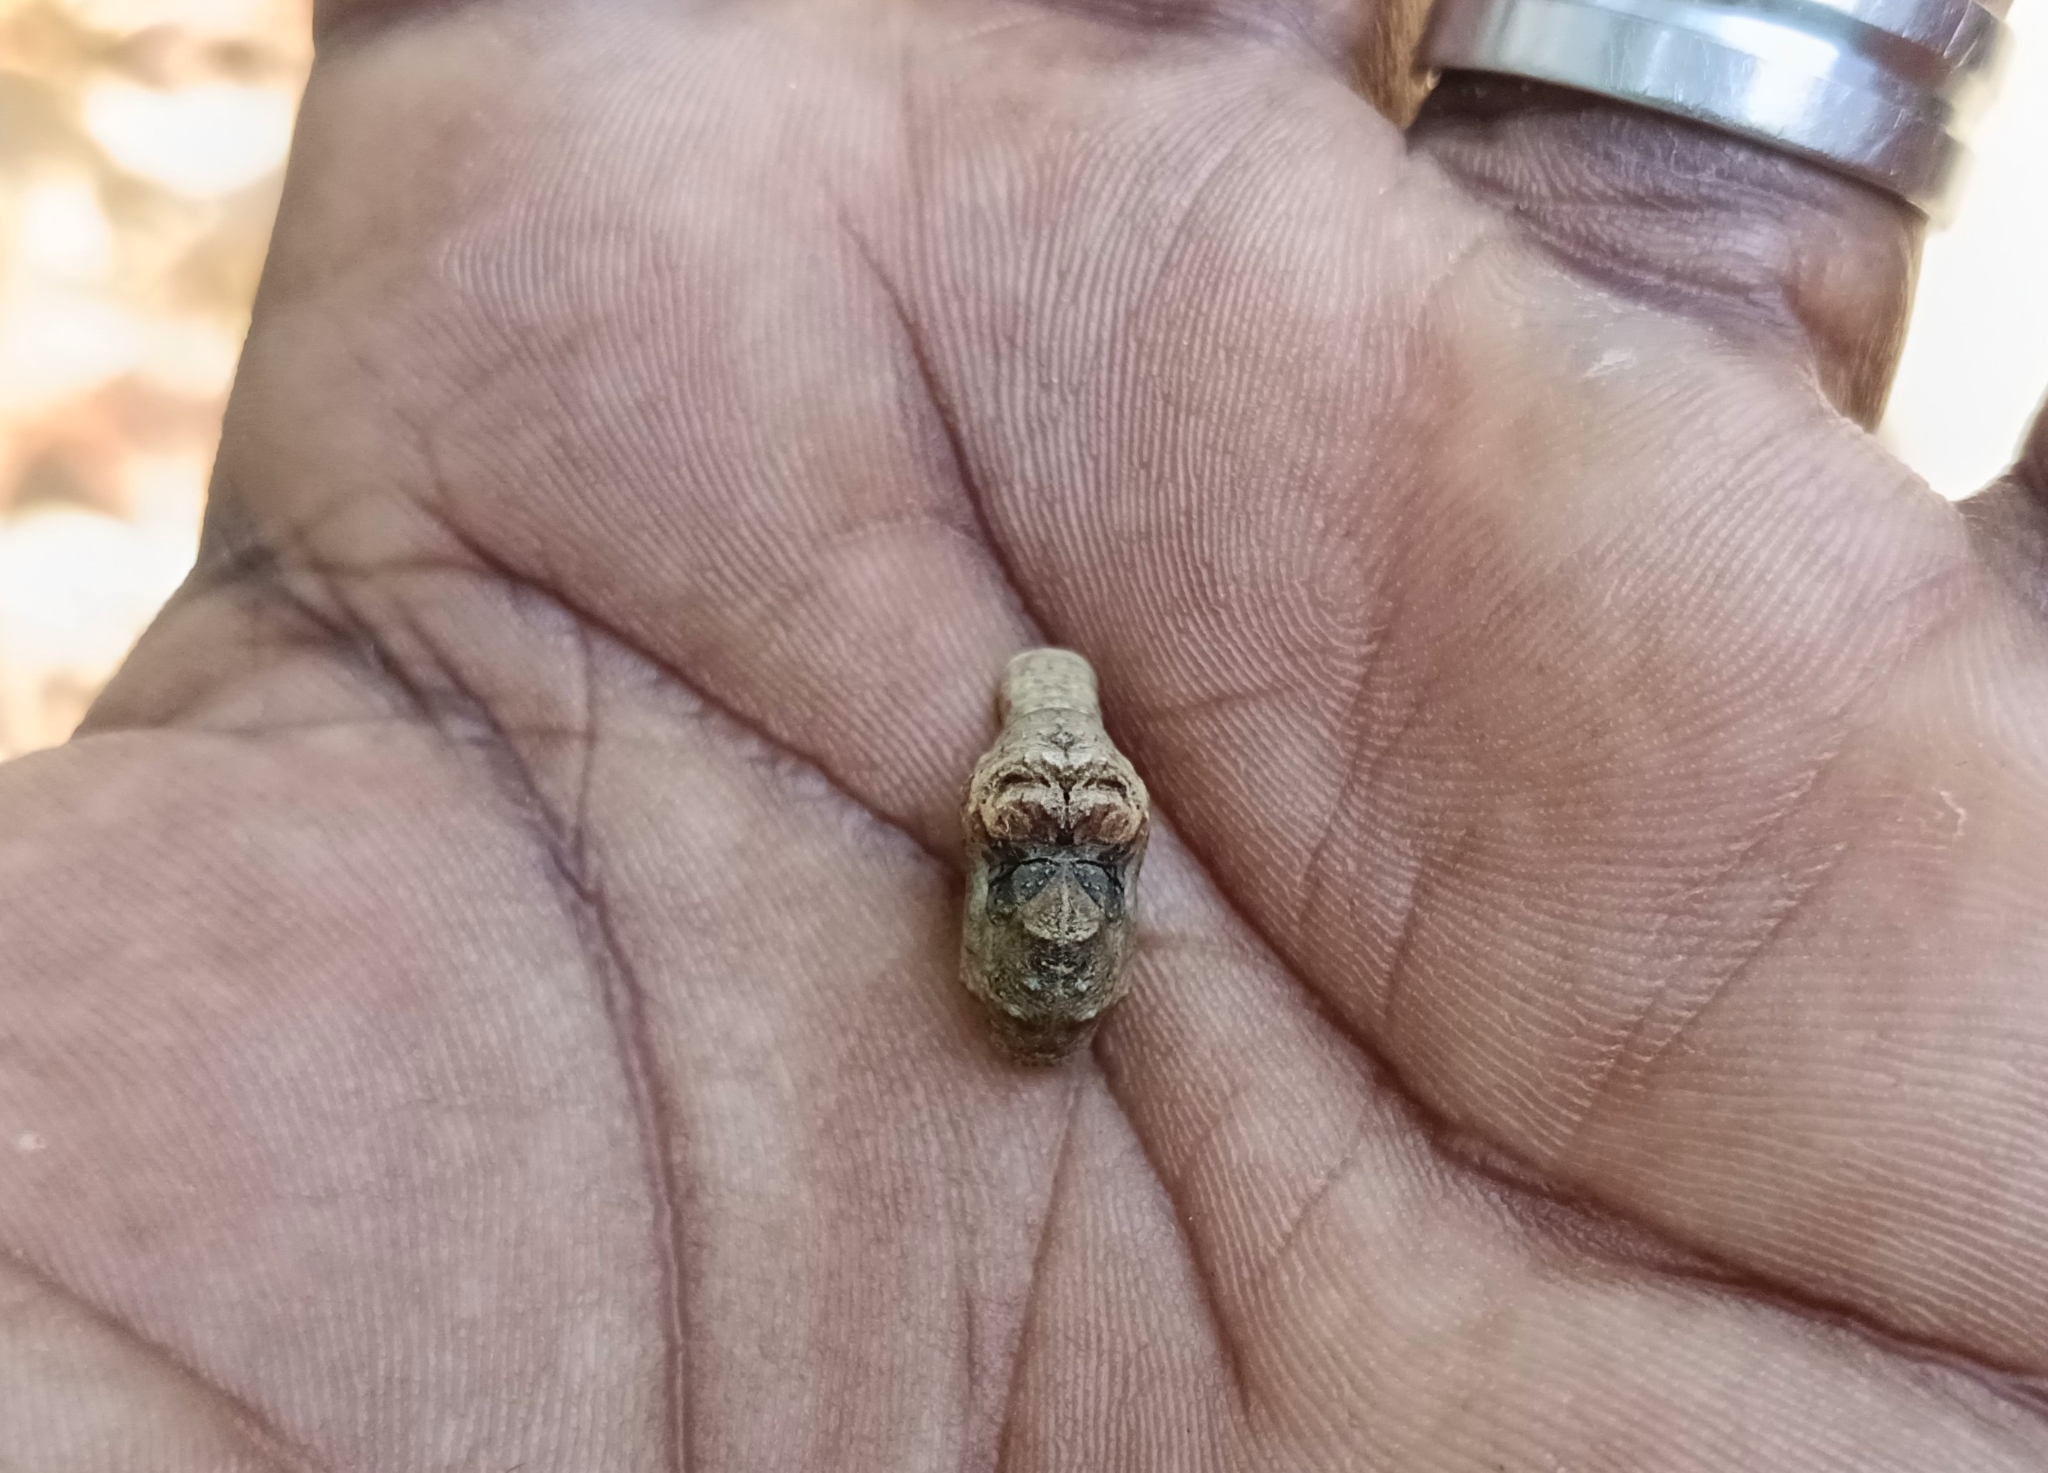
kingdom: Animalia
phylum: Arthropoda
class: Insecta
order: Lepidoptera
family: Lycaenidae
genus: Tajuria
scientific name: Tajuria cippus
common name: Peacock royal
